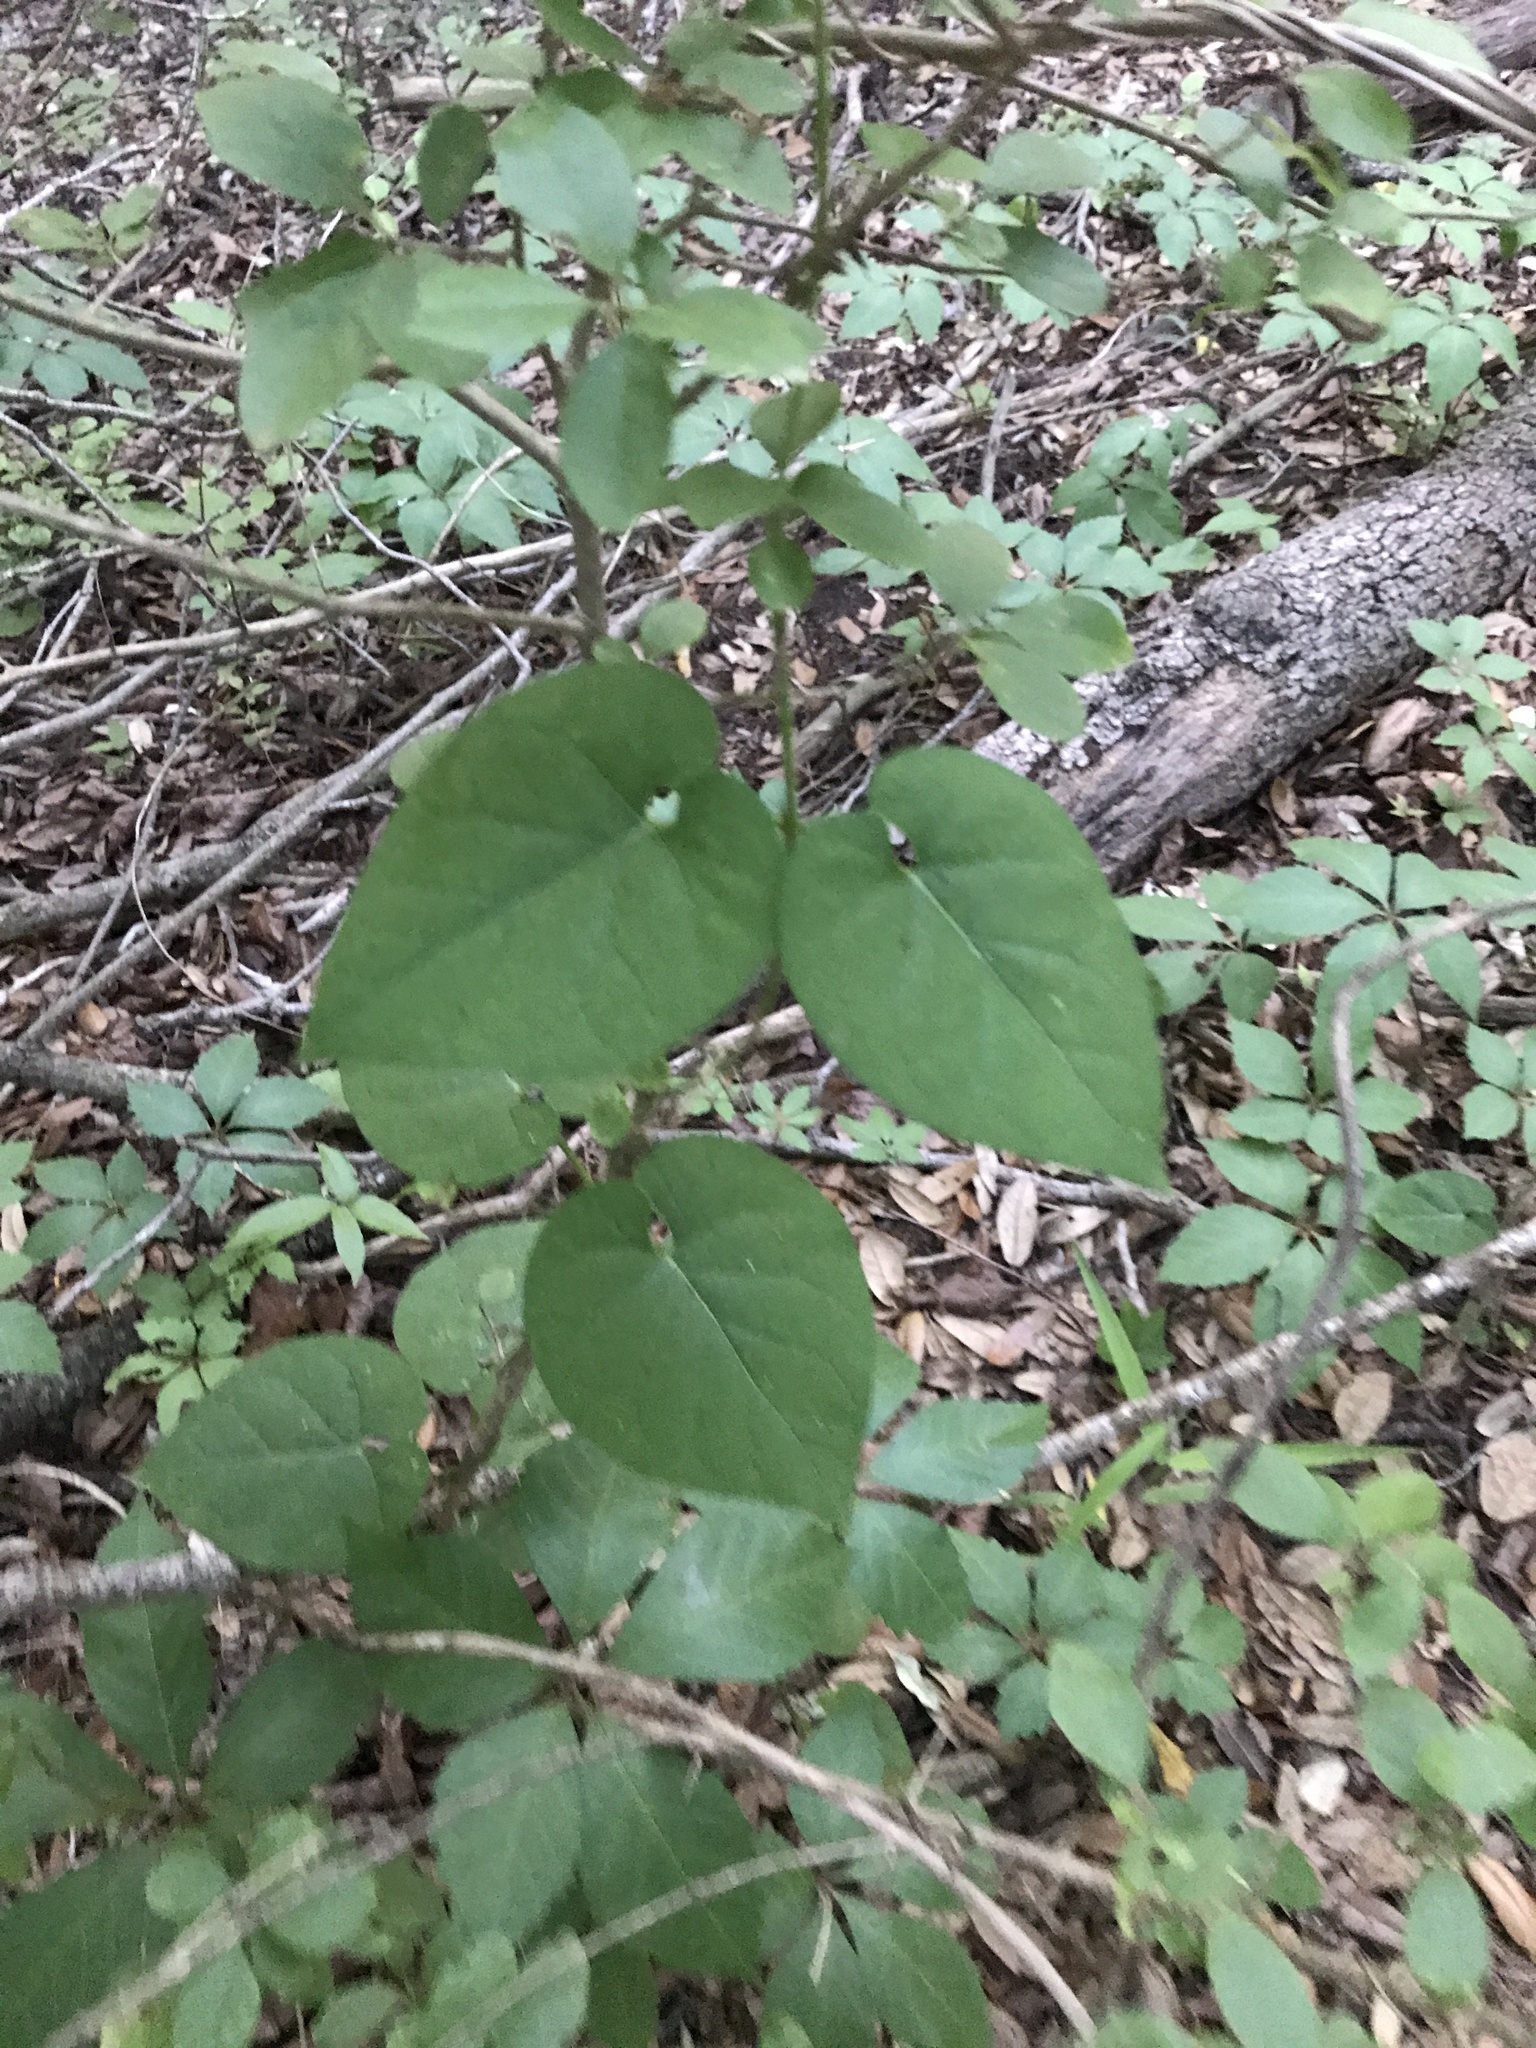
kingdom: Plantae
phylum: Tracheophyta
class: Magnoliopsida
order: Gentianales
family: Apocynaceae
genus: Dictyanthus
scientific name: Dictyanthus reticulatus
